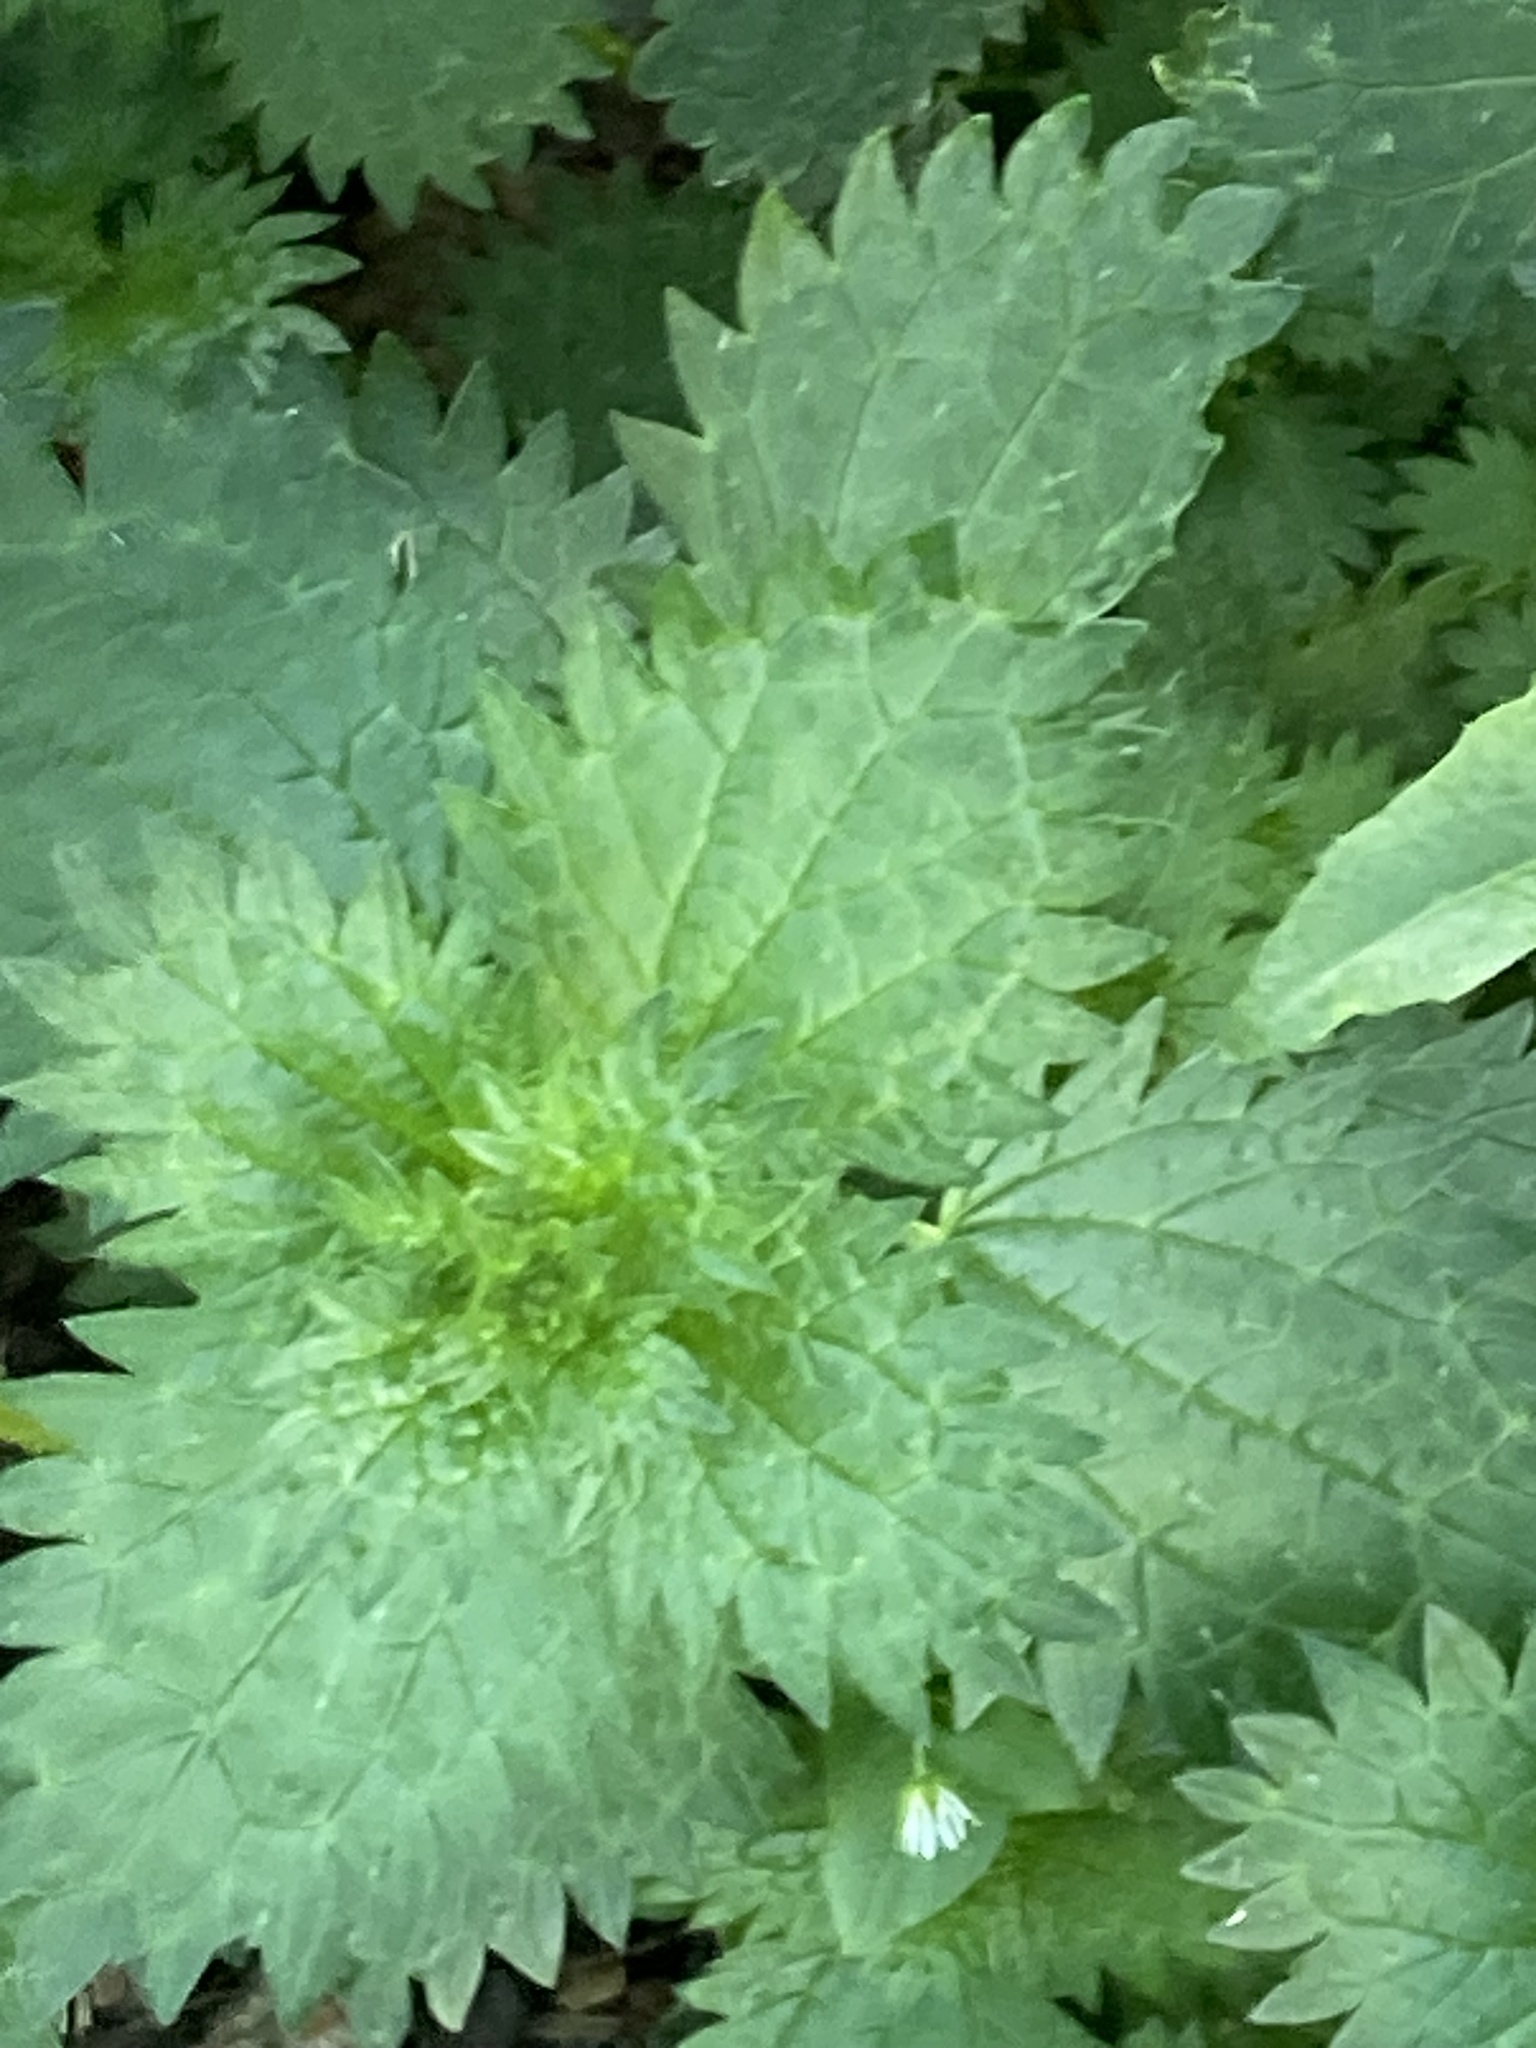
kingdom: Plantae
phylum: Tracheophyta
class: Magnoliopsida
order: Rosales
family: Urticaceae
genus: Urtica
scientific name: Urtica dioica
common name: Common nettle
